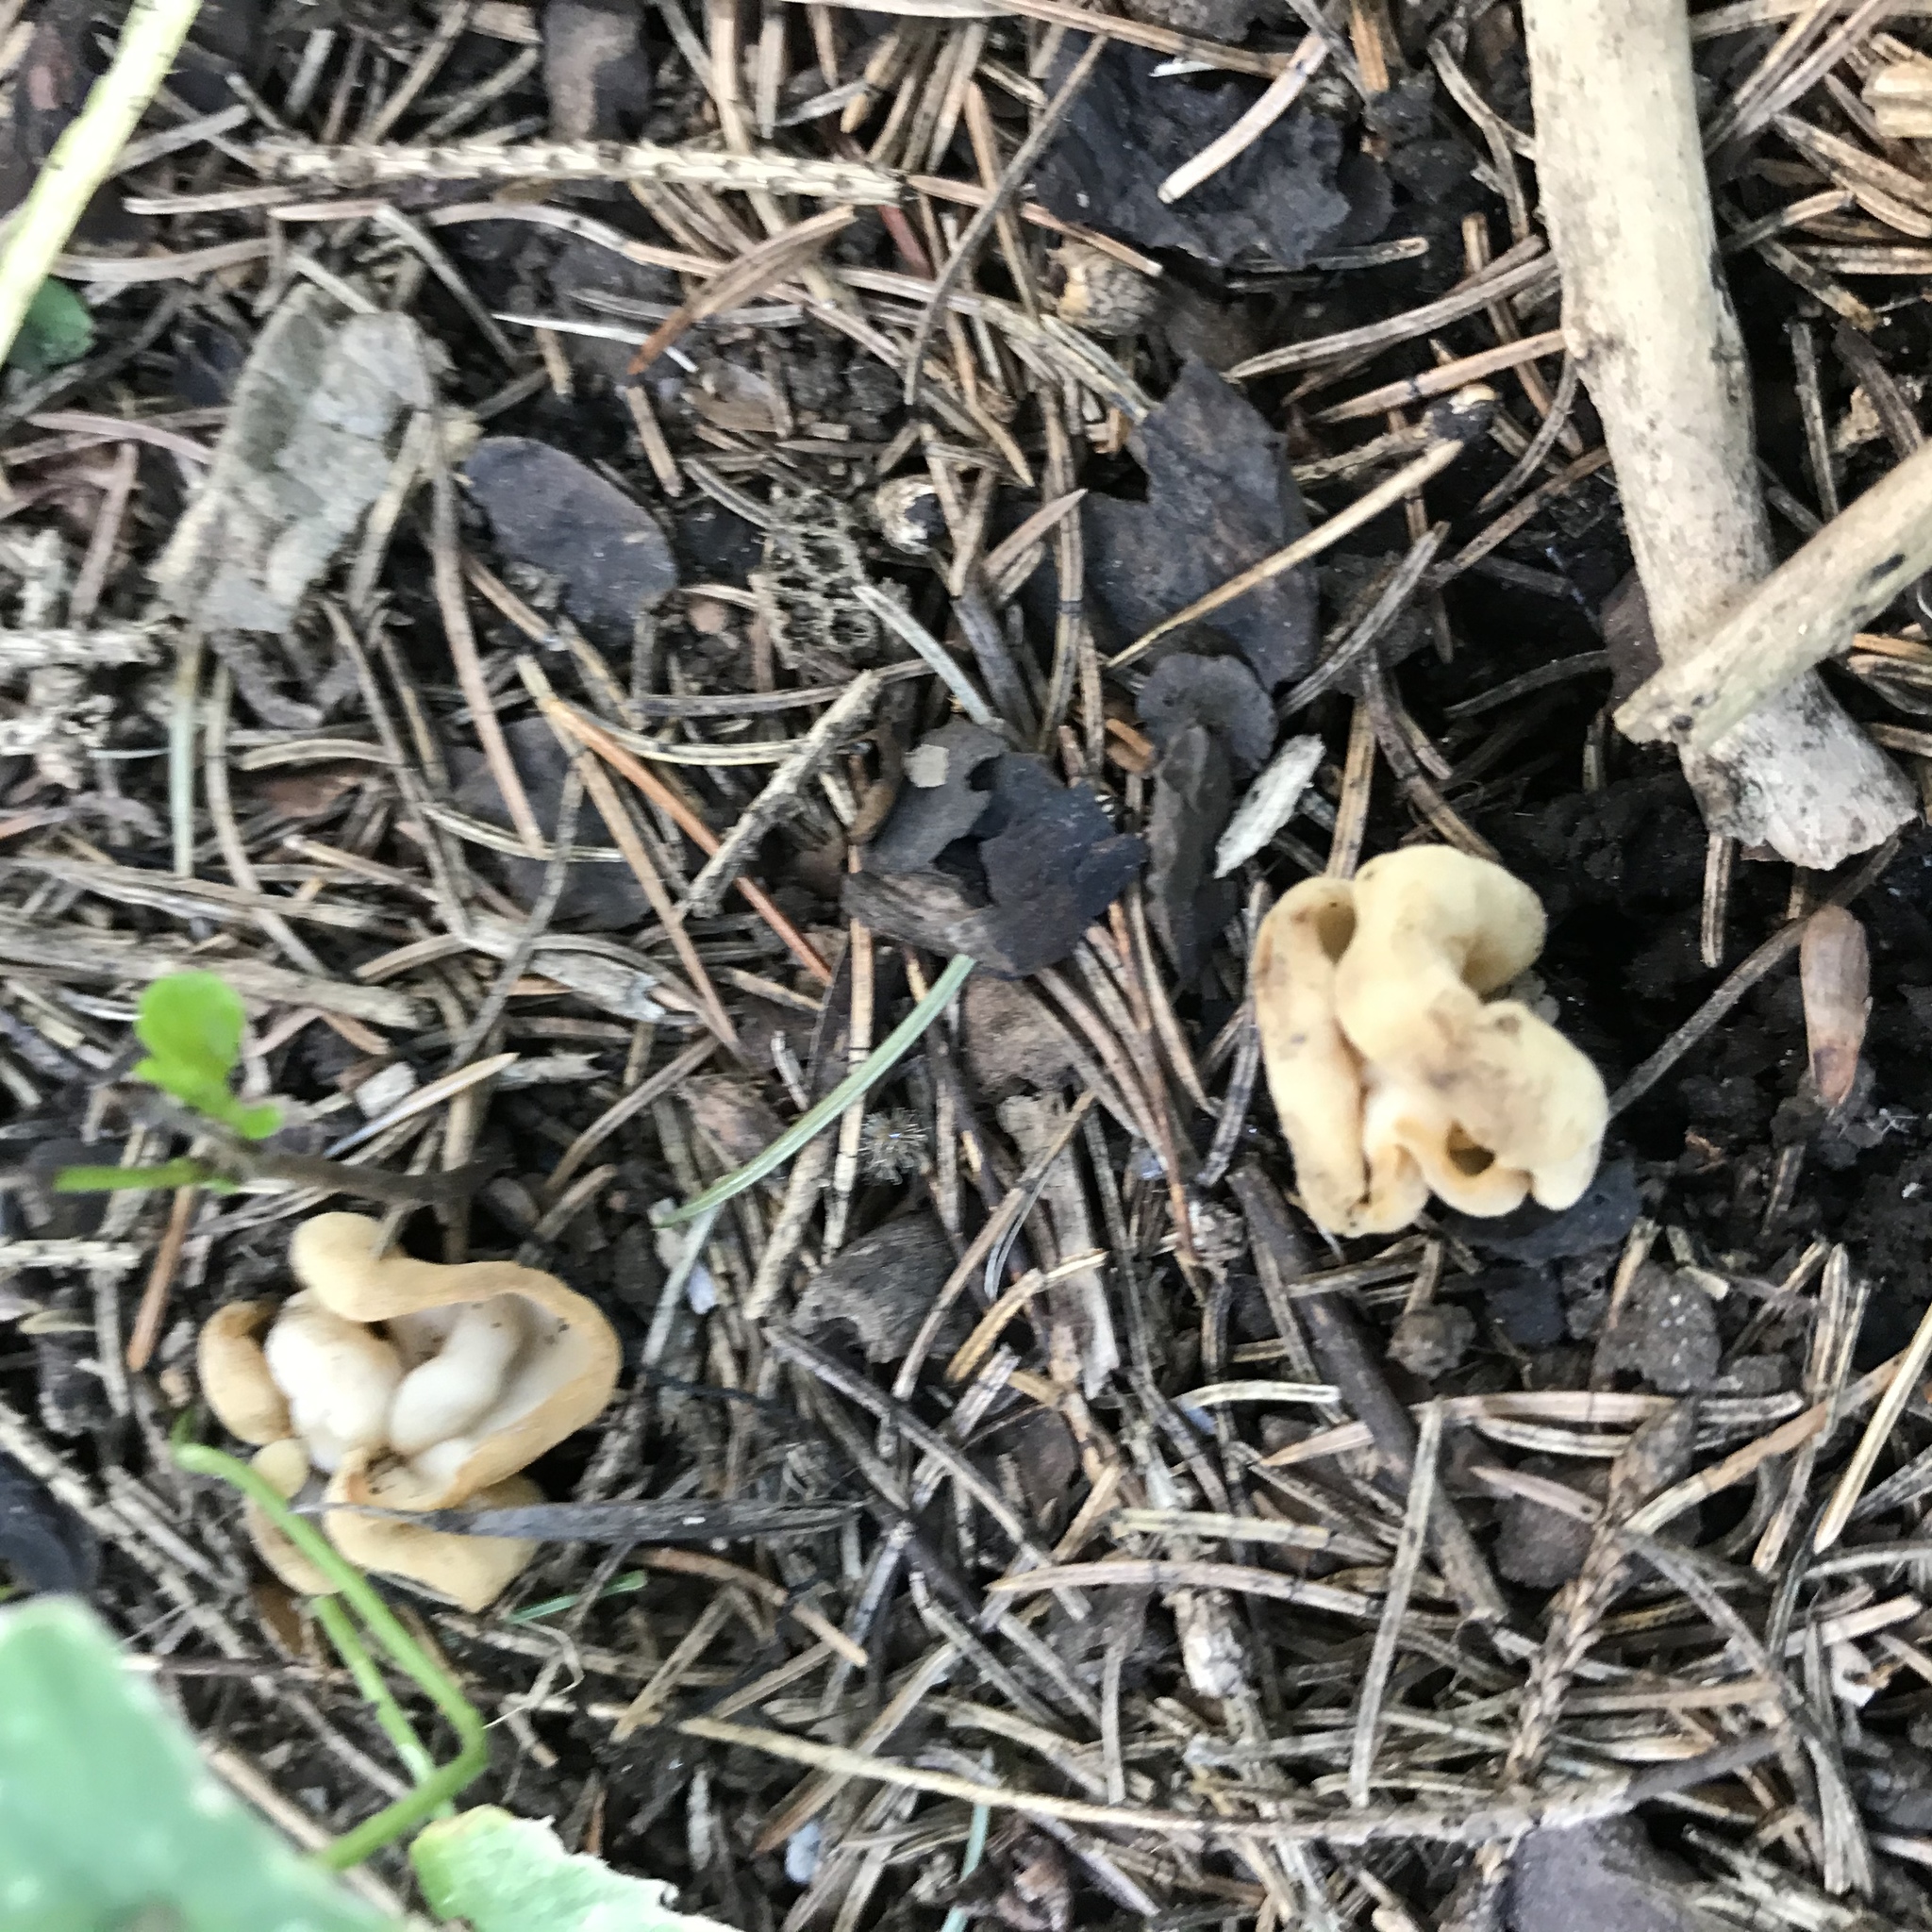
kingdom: Fungi
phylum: Ascomycota
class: Pezizomycetes
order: Pezizales
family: Helvellaceae
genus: Helvella
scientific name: Helvella crispa
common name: White saddle
